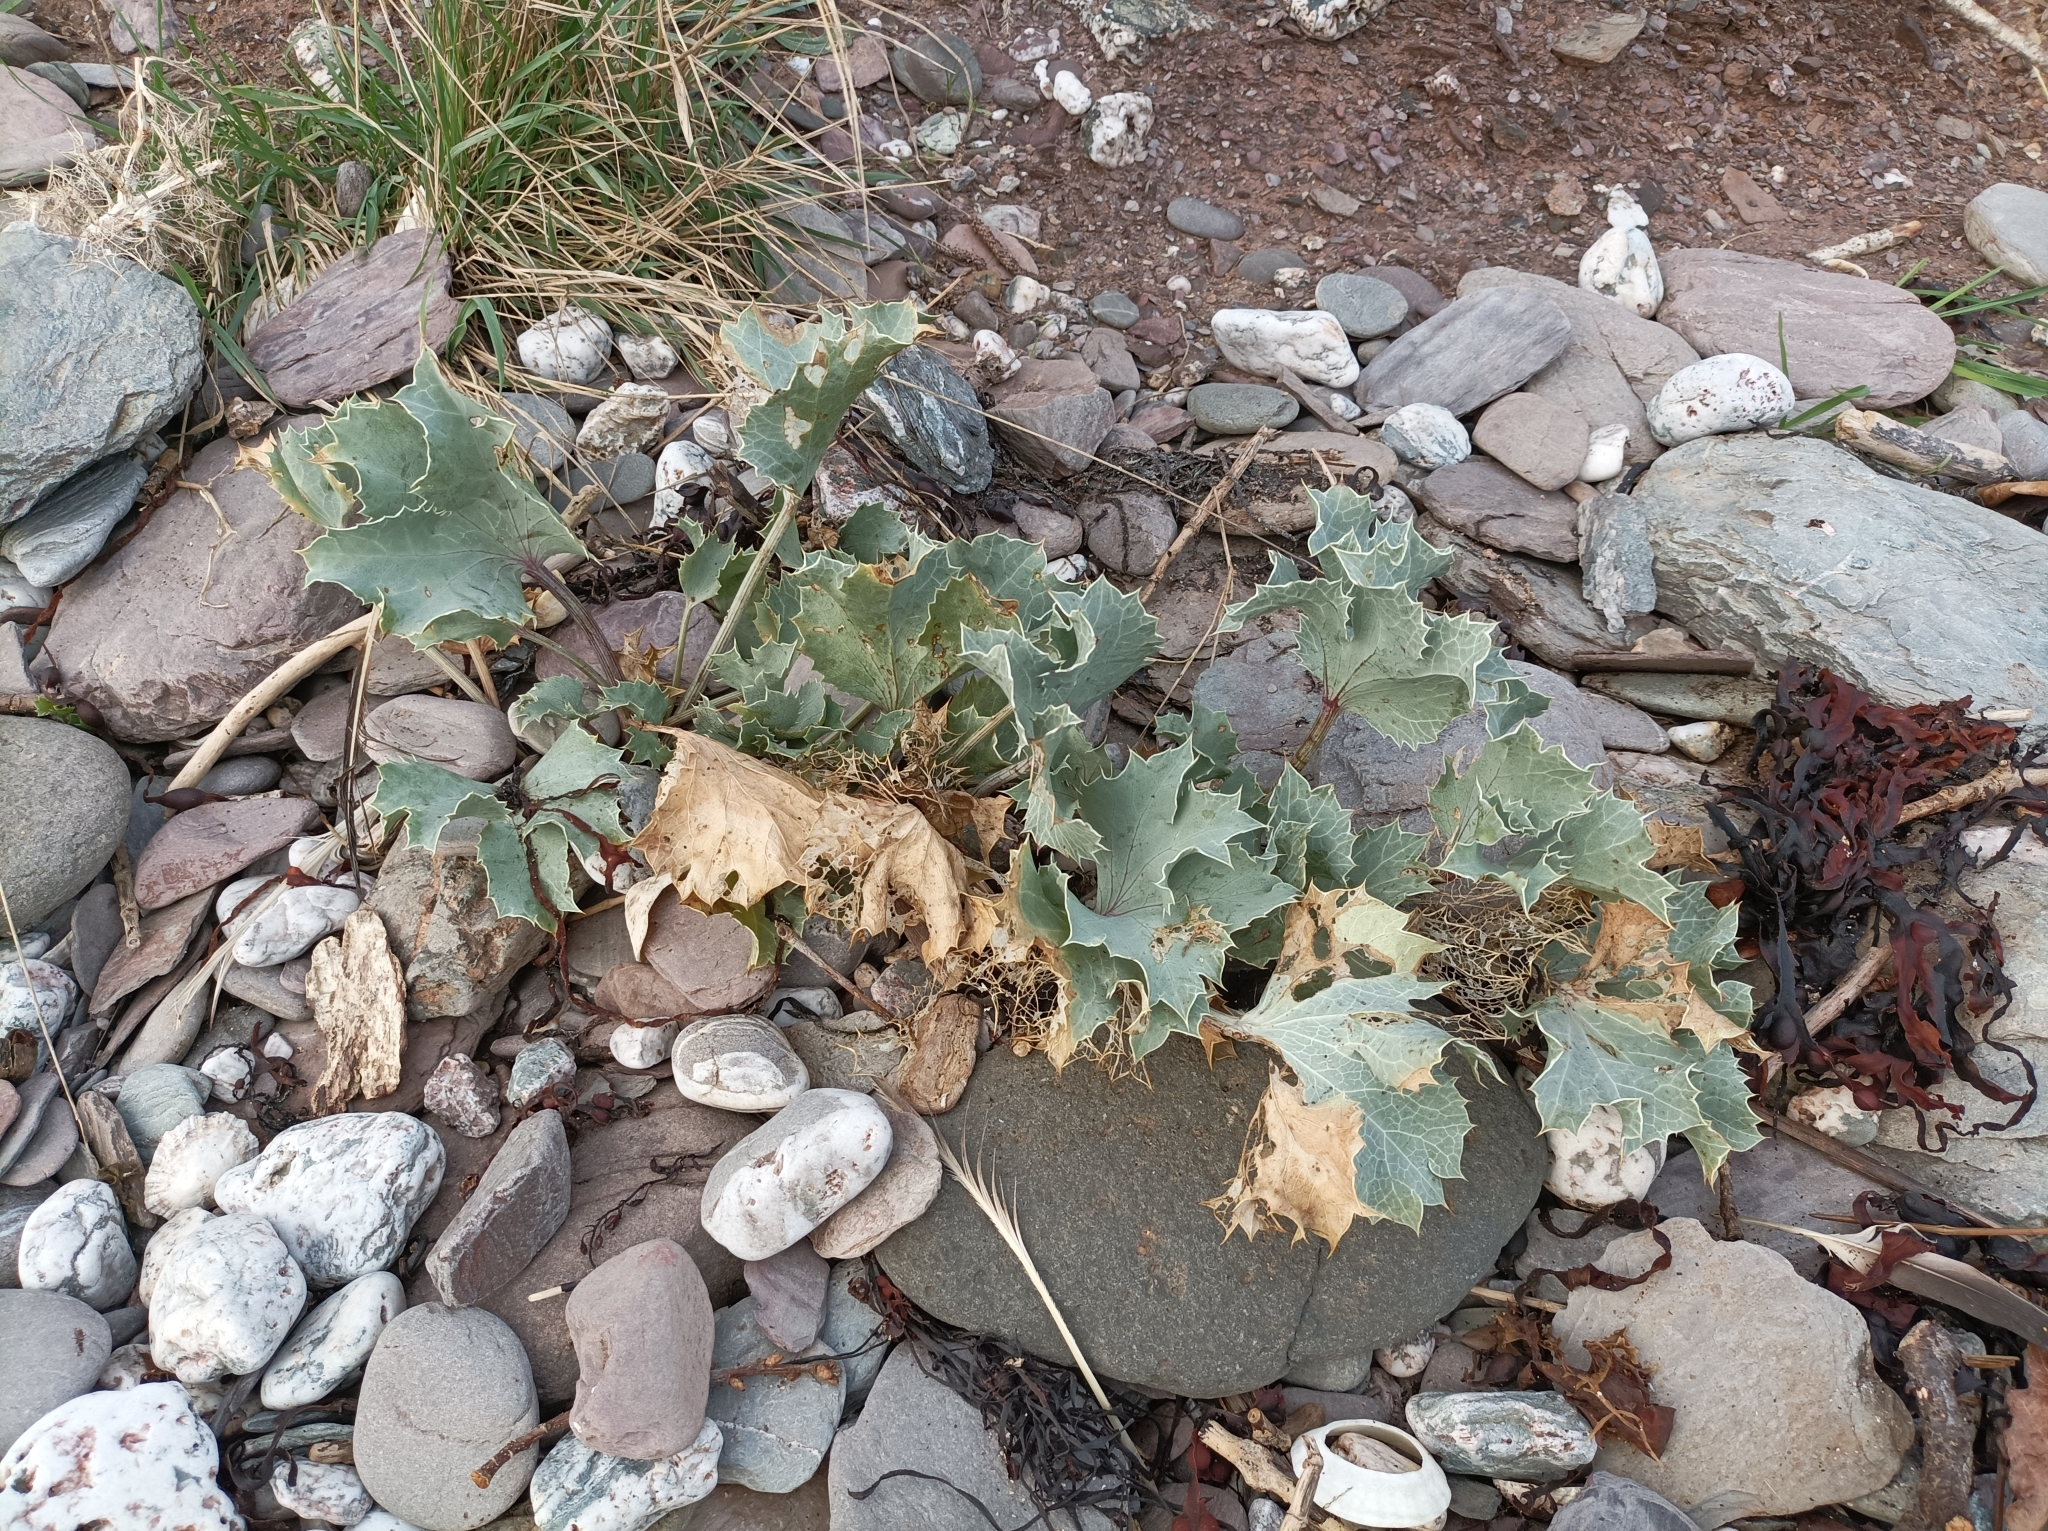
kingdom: Plantae
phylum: Tracheophyta
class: Magnoliopsida
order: Apiales
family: Apiaceae
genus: Eryngium
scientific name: Eryngium maritimum
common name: Sea-holly
